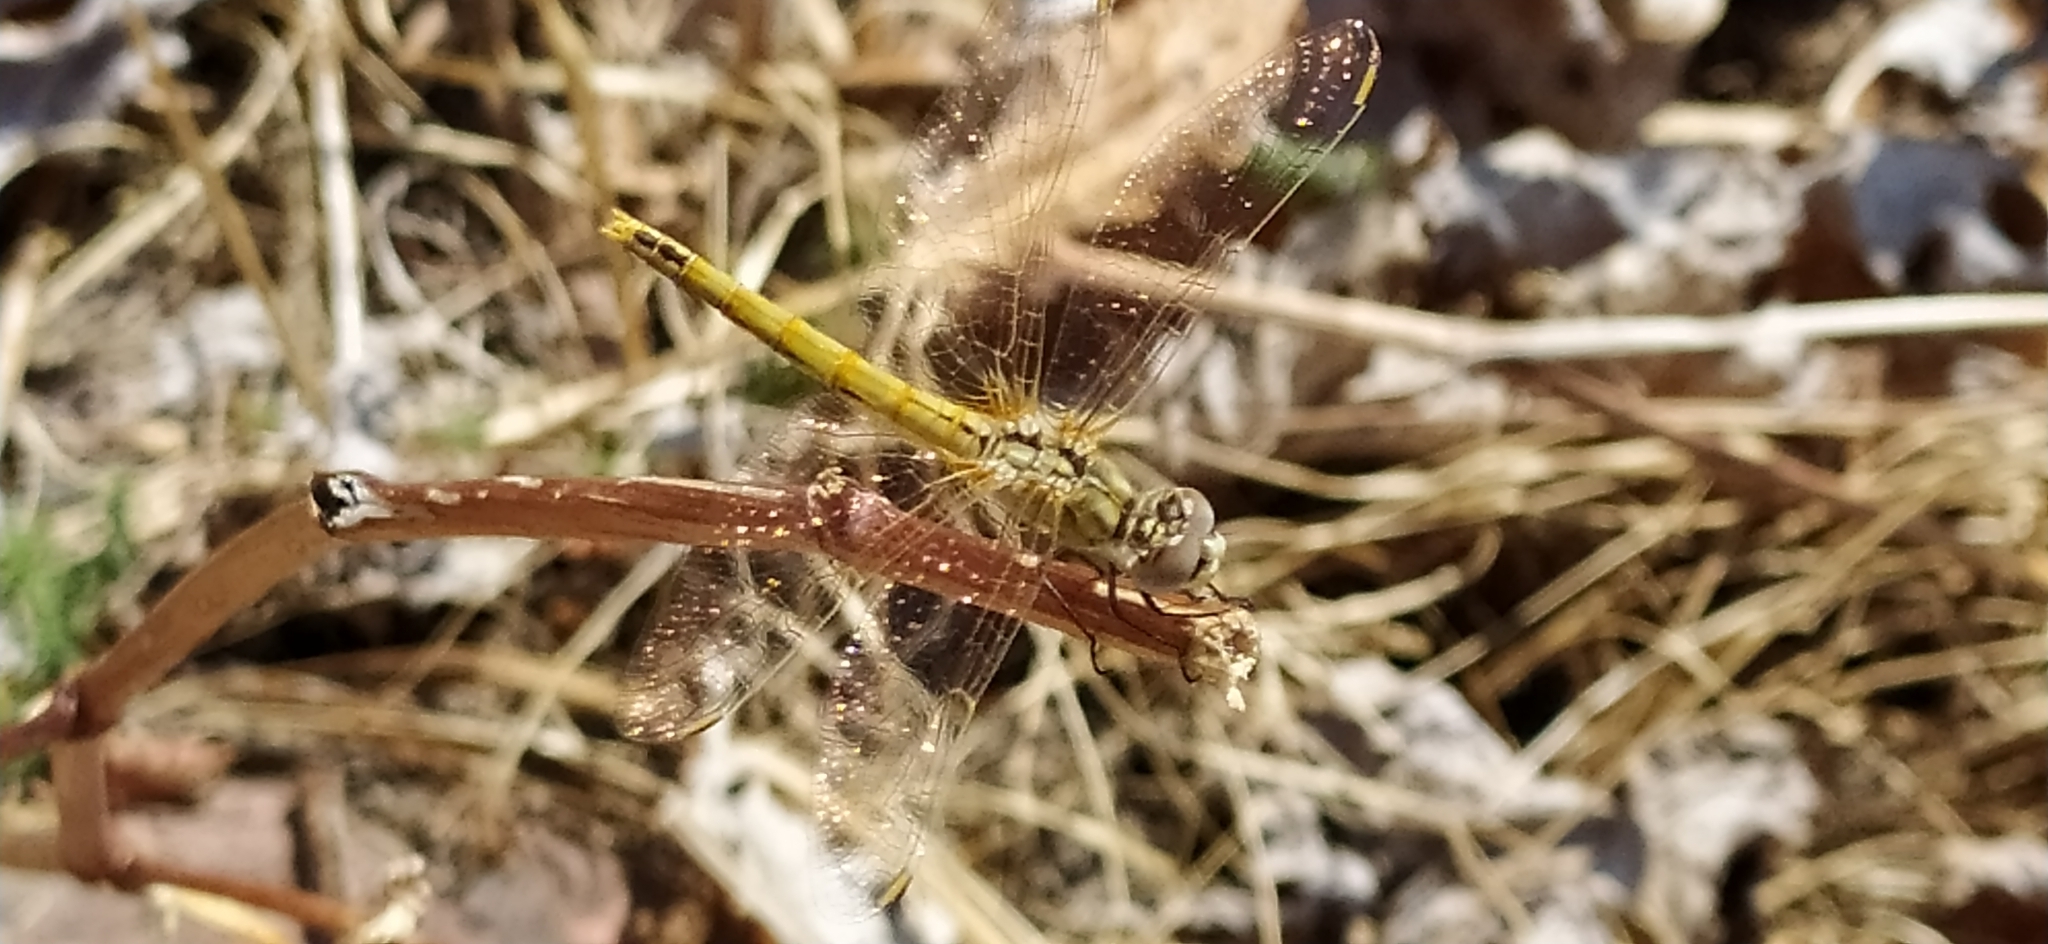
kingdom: Animalia
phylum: Arthropoda
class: Insecta
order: Odonata
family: Libellulidae
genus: Sympetrum
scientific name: Sympetrum fonscolombii
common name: Red-veined darter
